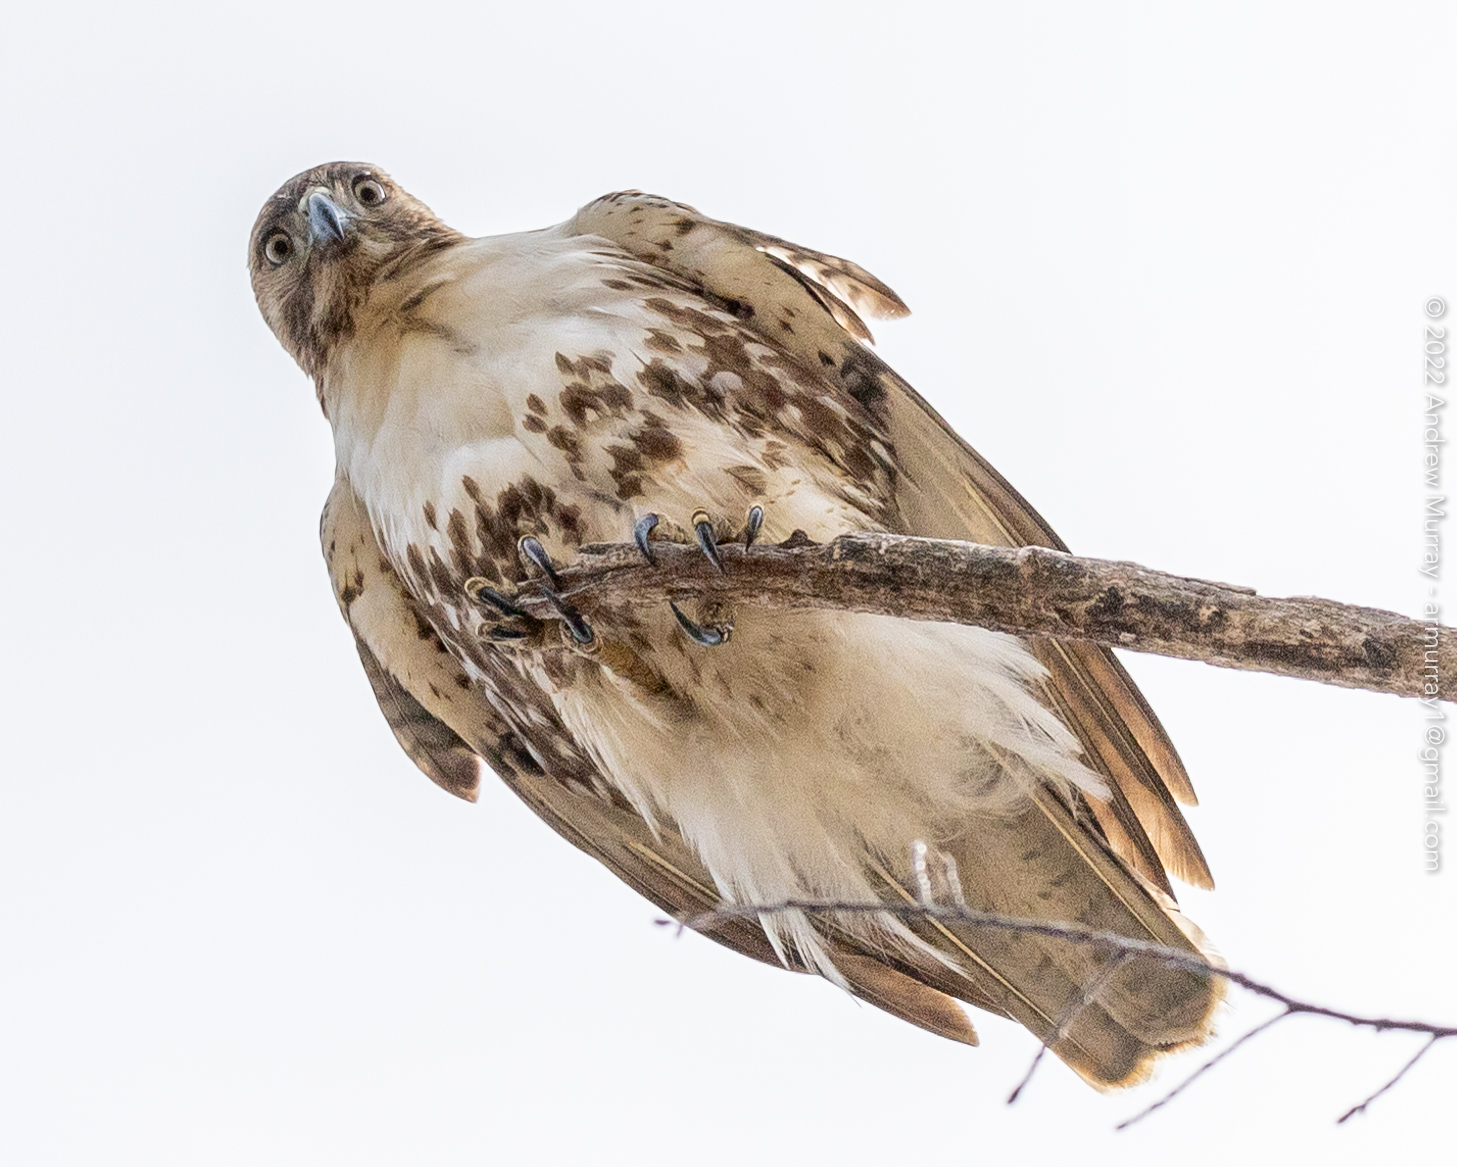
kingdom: Animalia
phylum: Chordata
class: Aves
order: Accipitriformes
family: Accipitridae
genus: Buteo
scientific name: Buteo jamaicensis
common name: Red-tailed hawk
